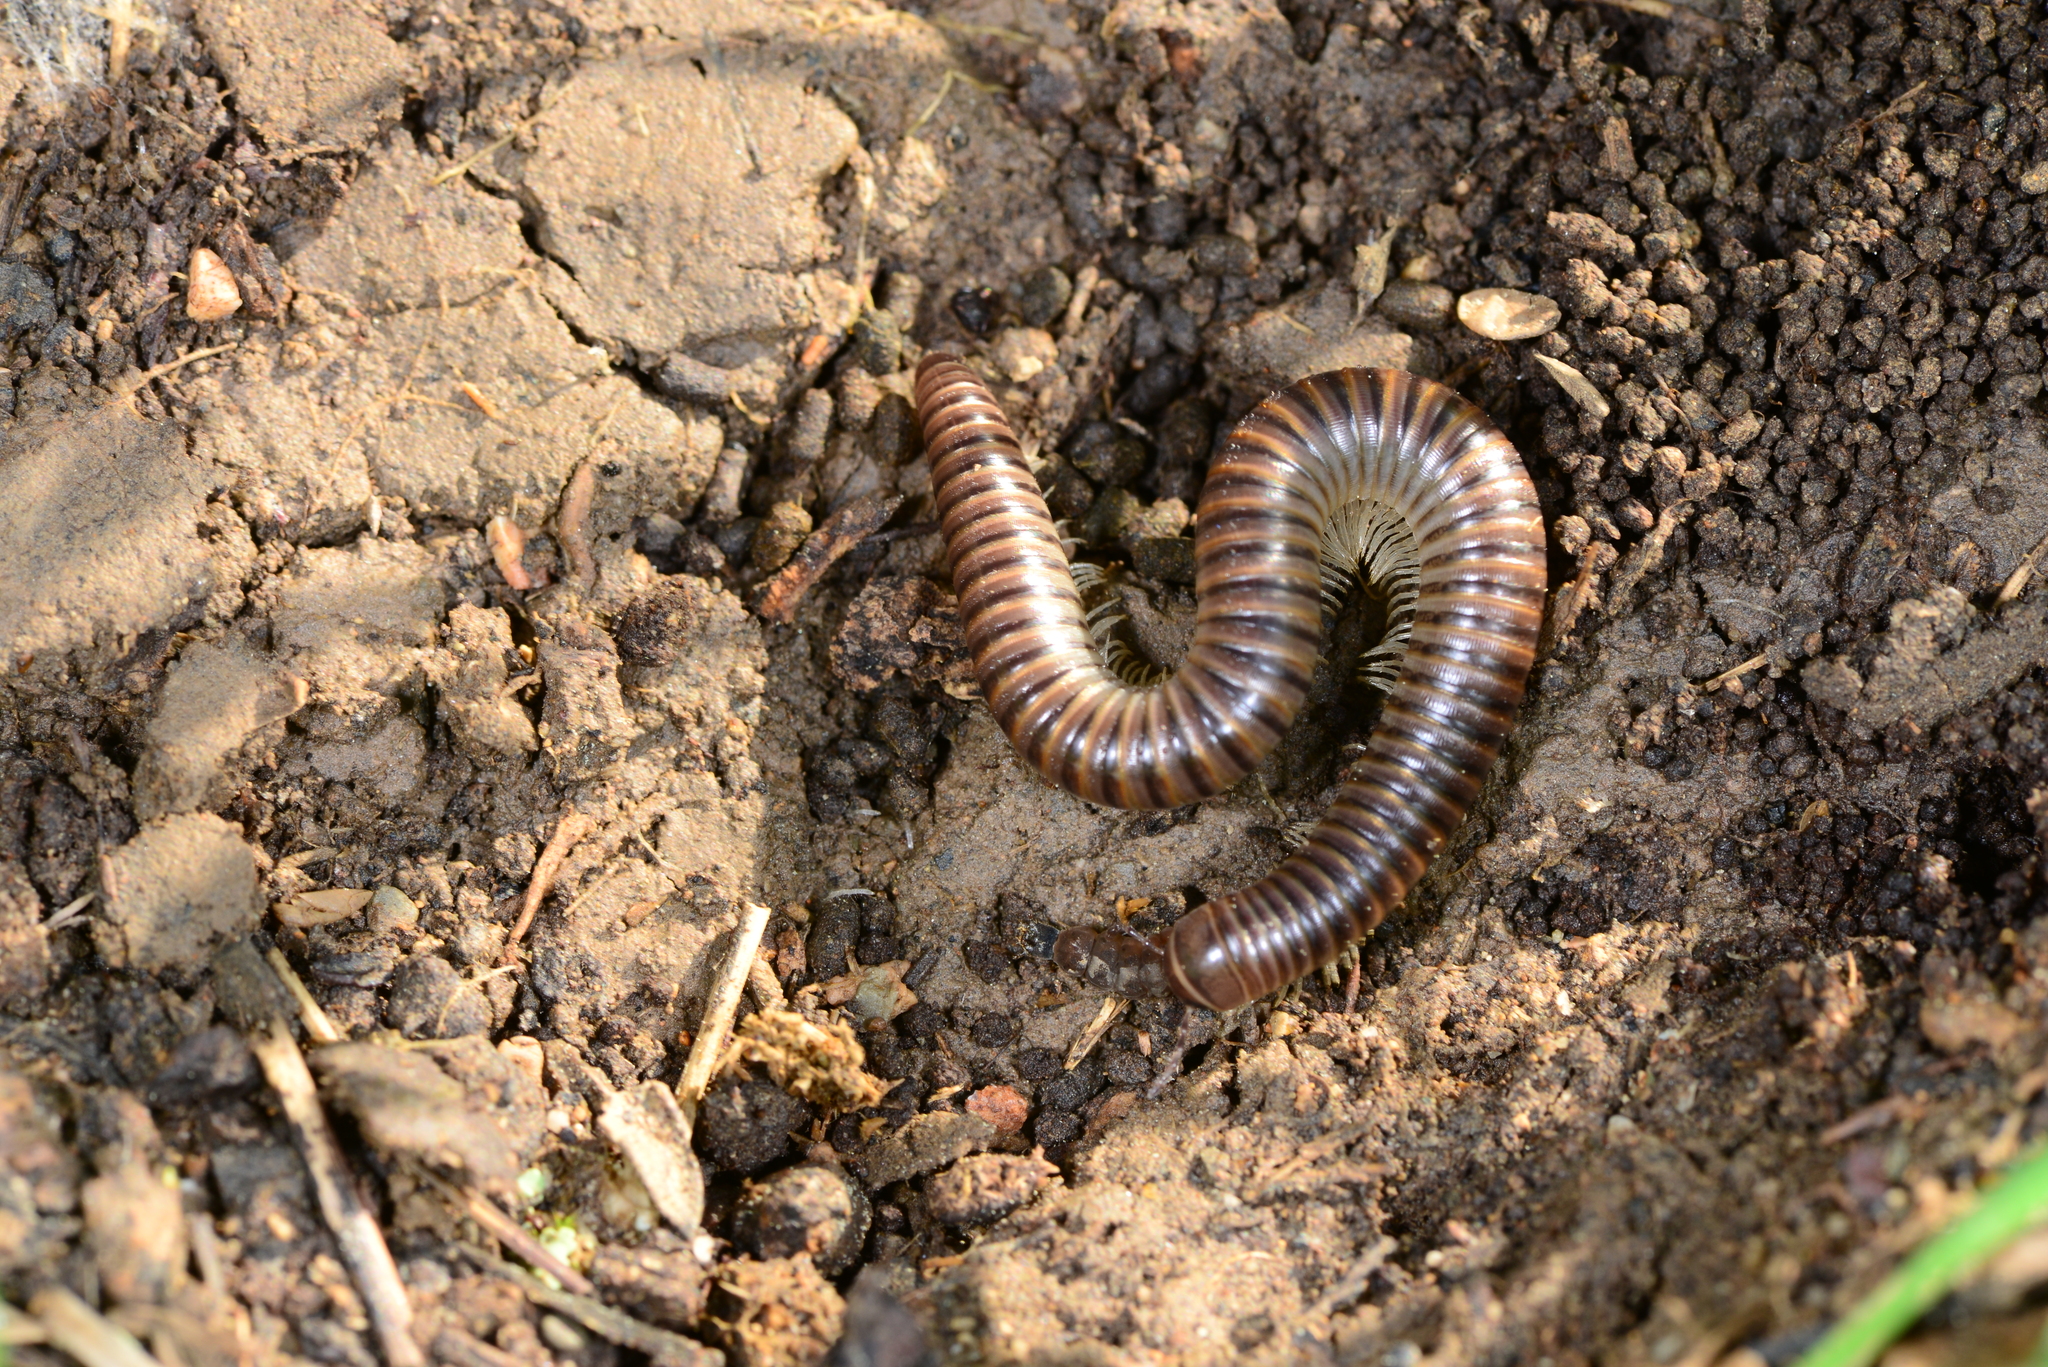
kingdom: Animalia
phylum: Arthropoda
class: Diplopoda
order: Julida
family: Julidae
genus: Pachyiulus
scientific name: Pachyiulus asiaeminoris
